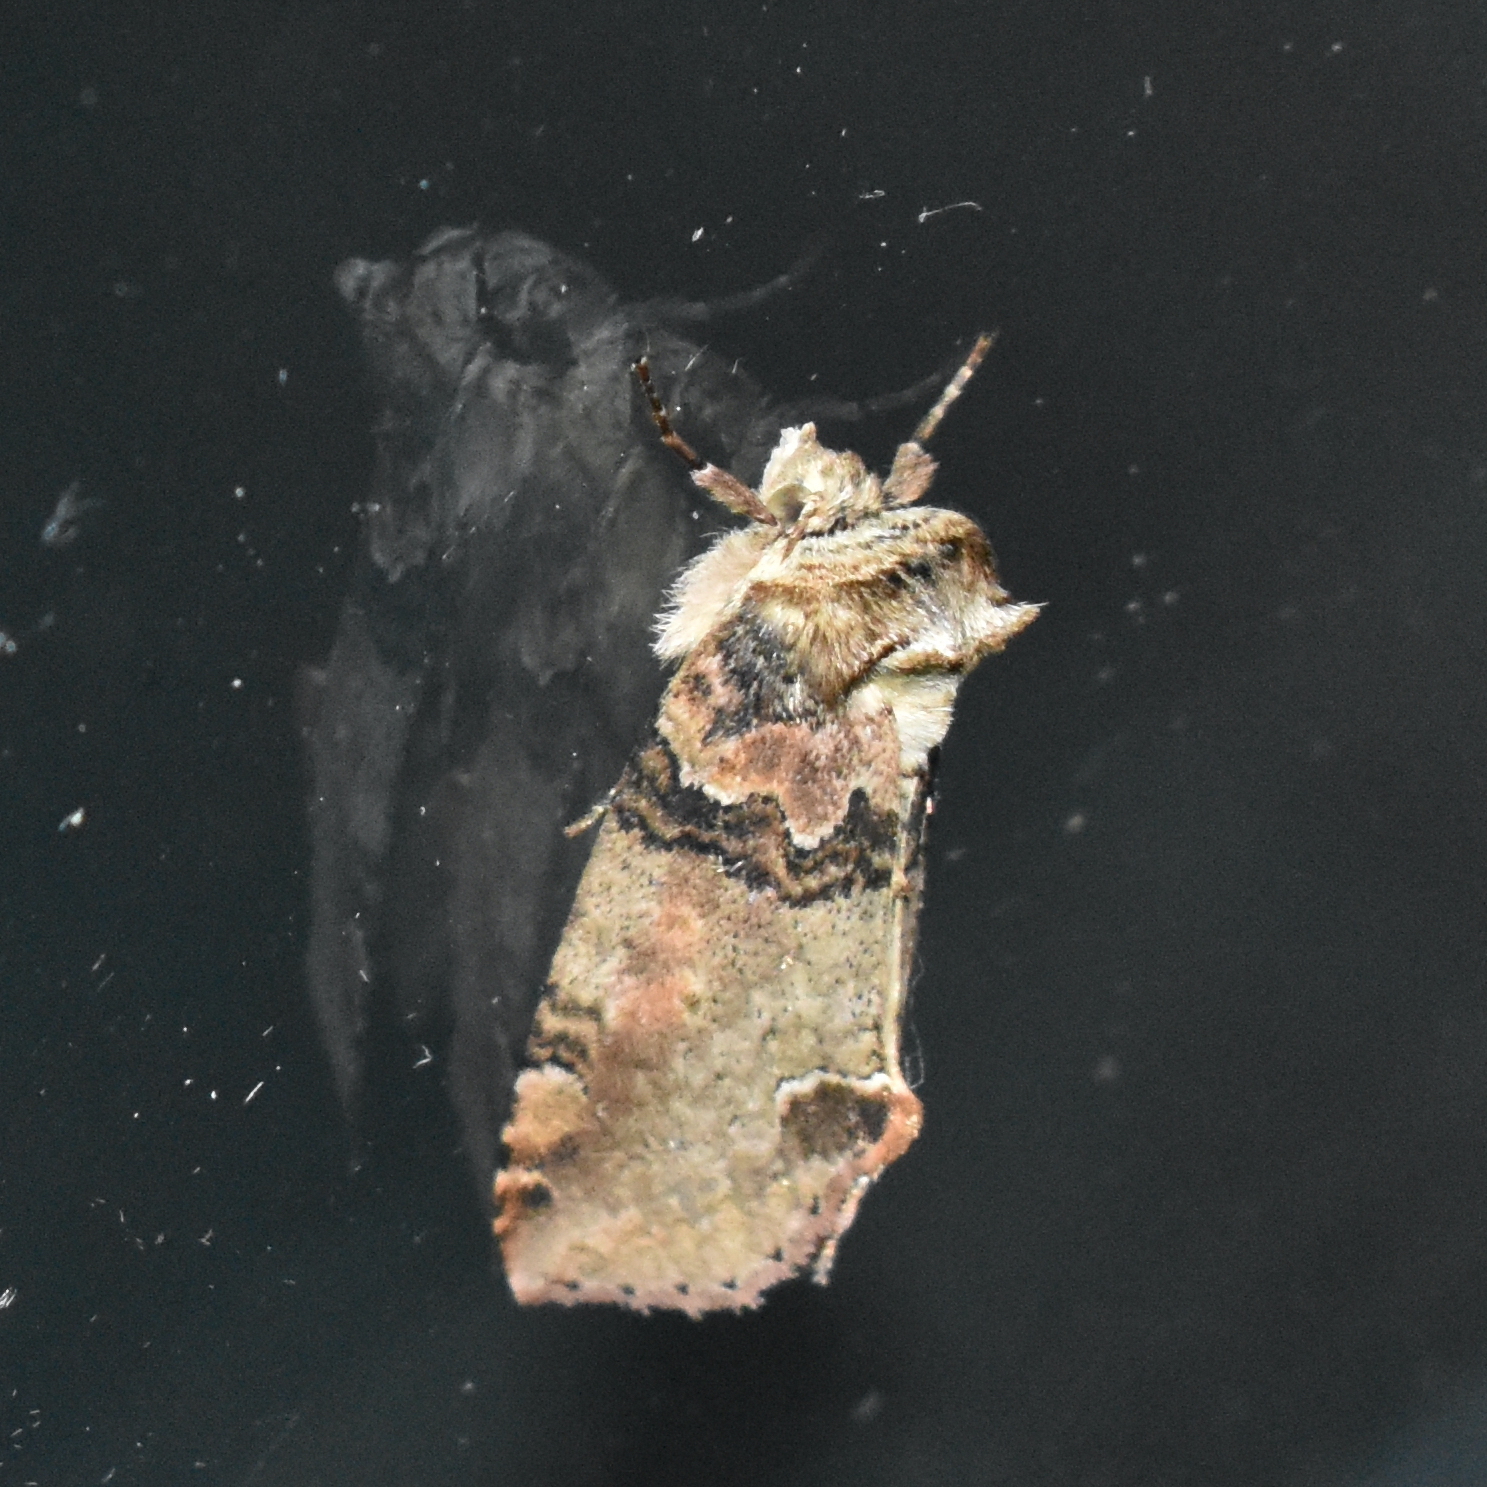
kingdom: Animalia
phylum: Arthropoda
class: Insecta
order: Lepidoptera
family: Drepanidae
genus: Pseudothyatira
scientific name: Pseudothyatira cymatophoroides
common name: Tufted thyatirid moth
